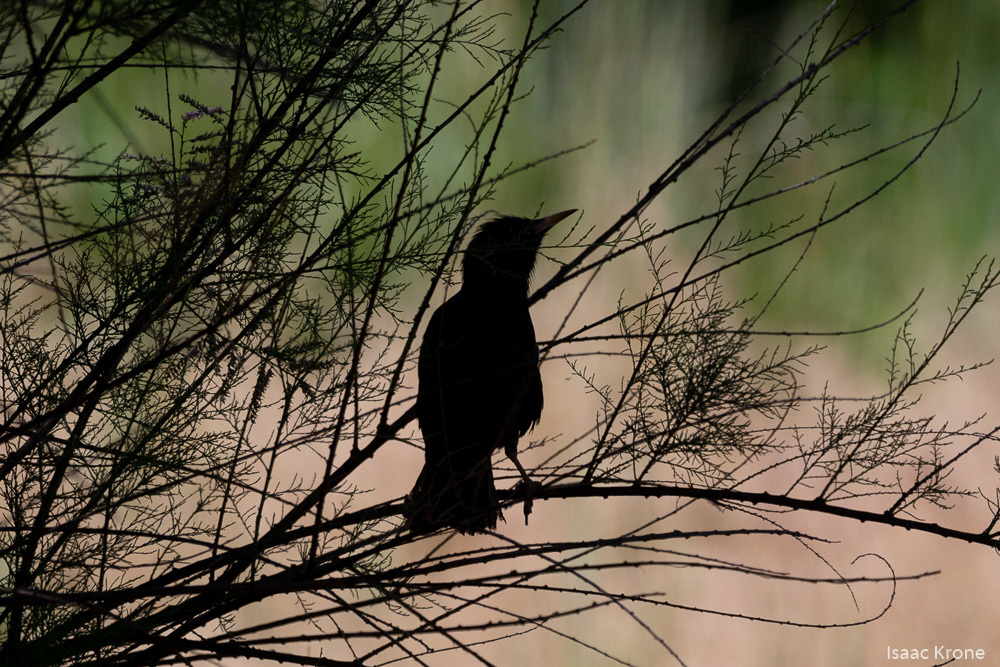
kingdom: Animalia
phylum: Chordata
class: Aves
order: Passeriformes
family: Sturnidae
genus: Sturnus
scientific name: Sturnus vulgaris
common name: Common starling
